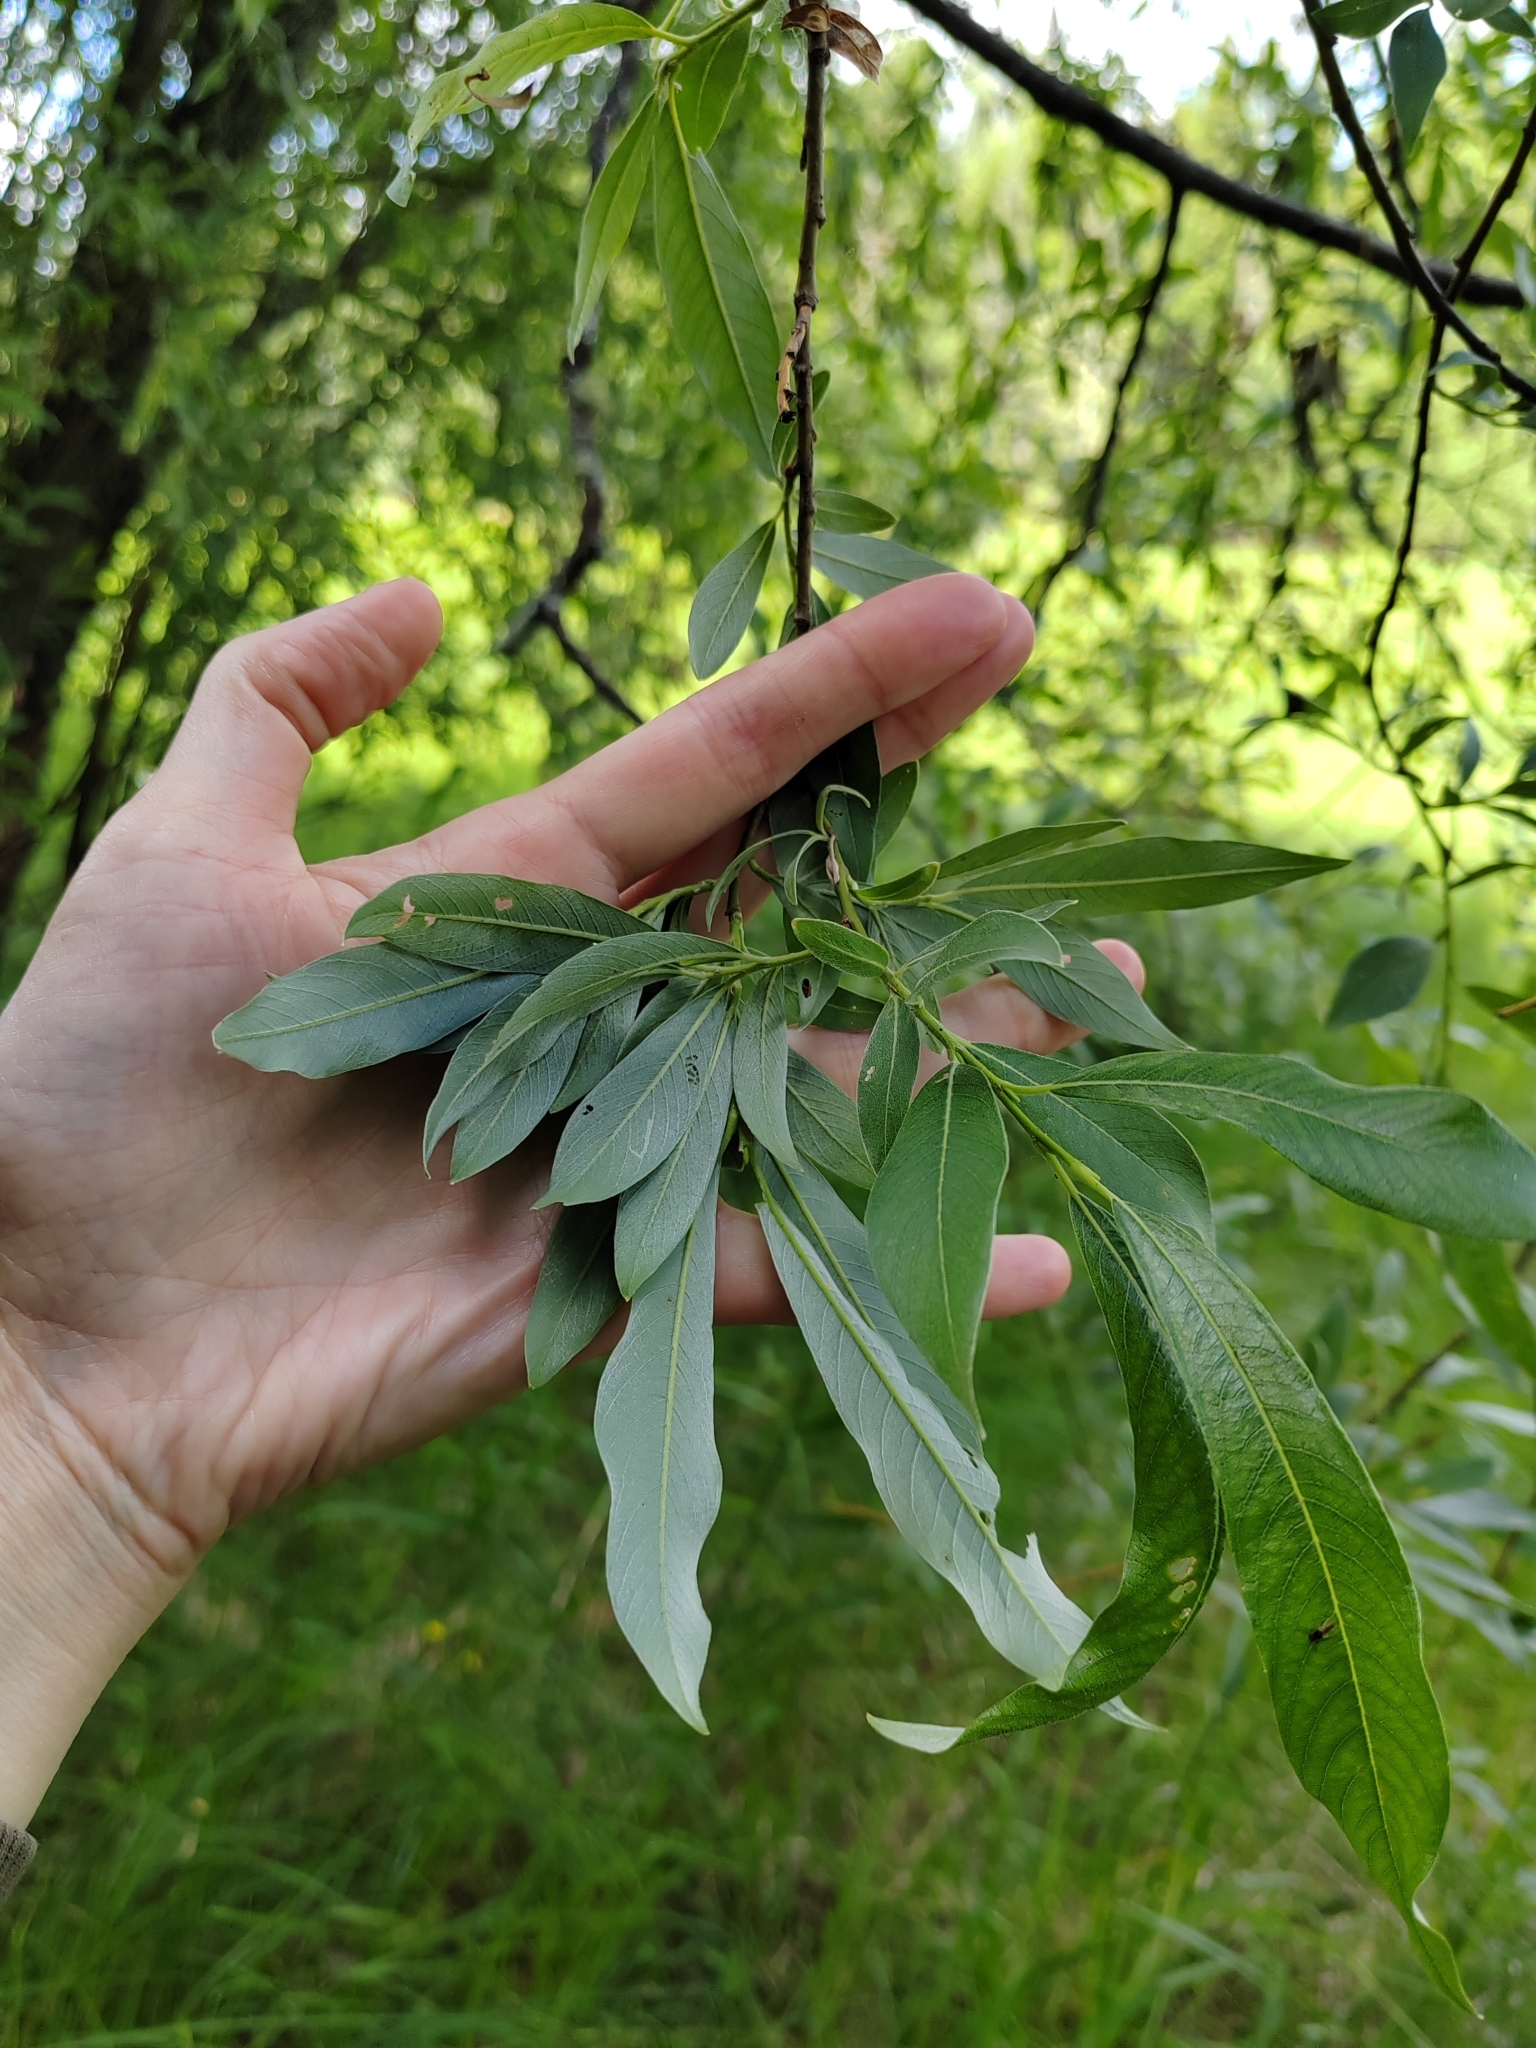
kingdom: Plantae
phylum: Tracheophyta
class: Magnoliopsida
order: Malpighiales
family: Salicaceae
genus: Salix
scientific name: Salix gmelinii
